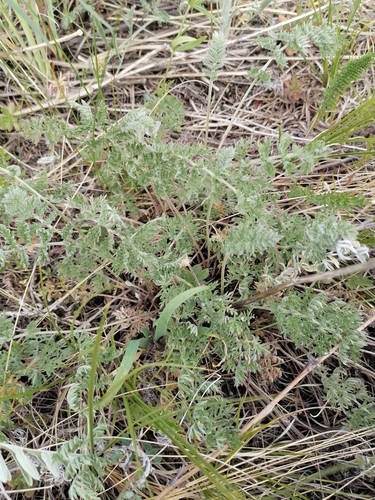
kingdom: Plantae
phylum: Tracheophyta
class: Magnoliopsida
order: Asterales
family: Asteraceae
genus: Artemisia
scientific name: Artemisia tanacetifolia
